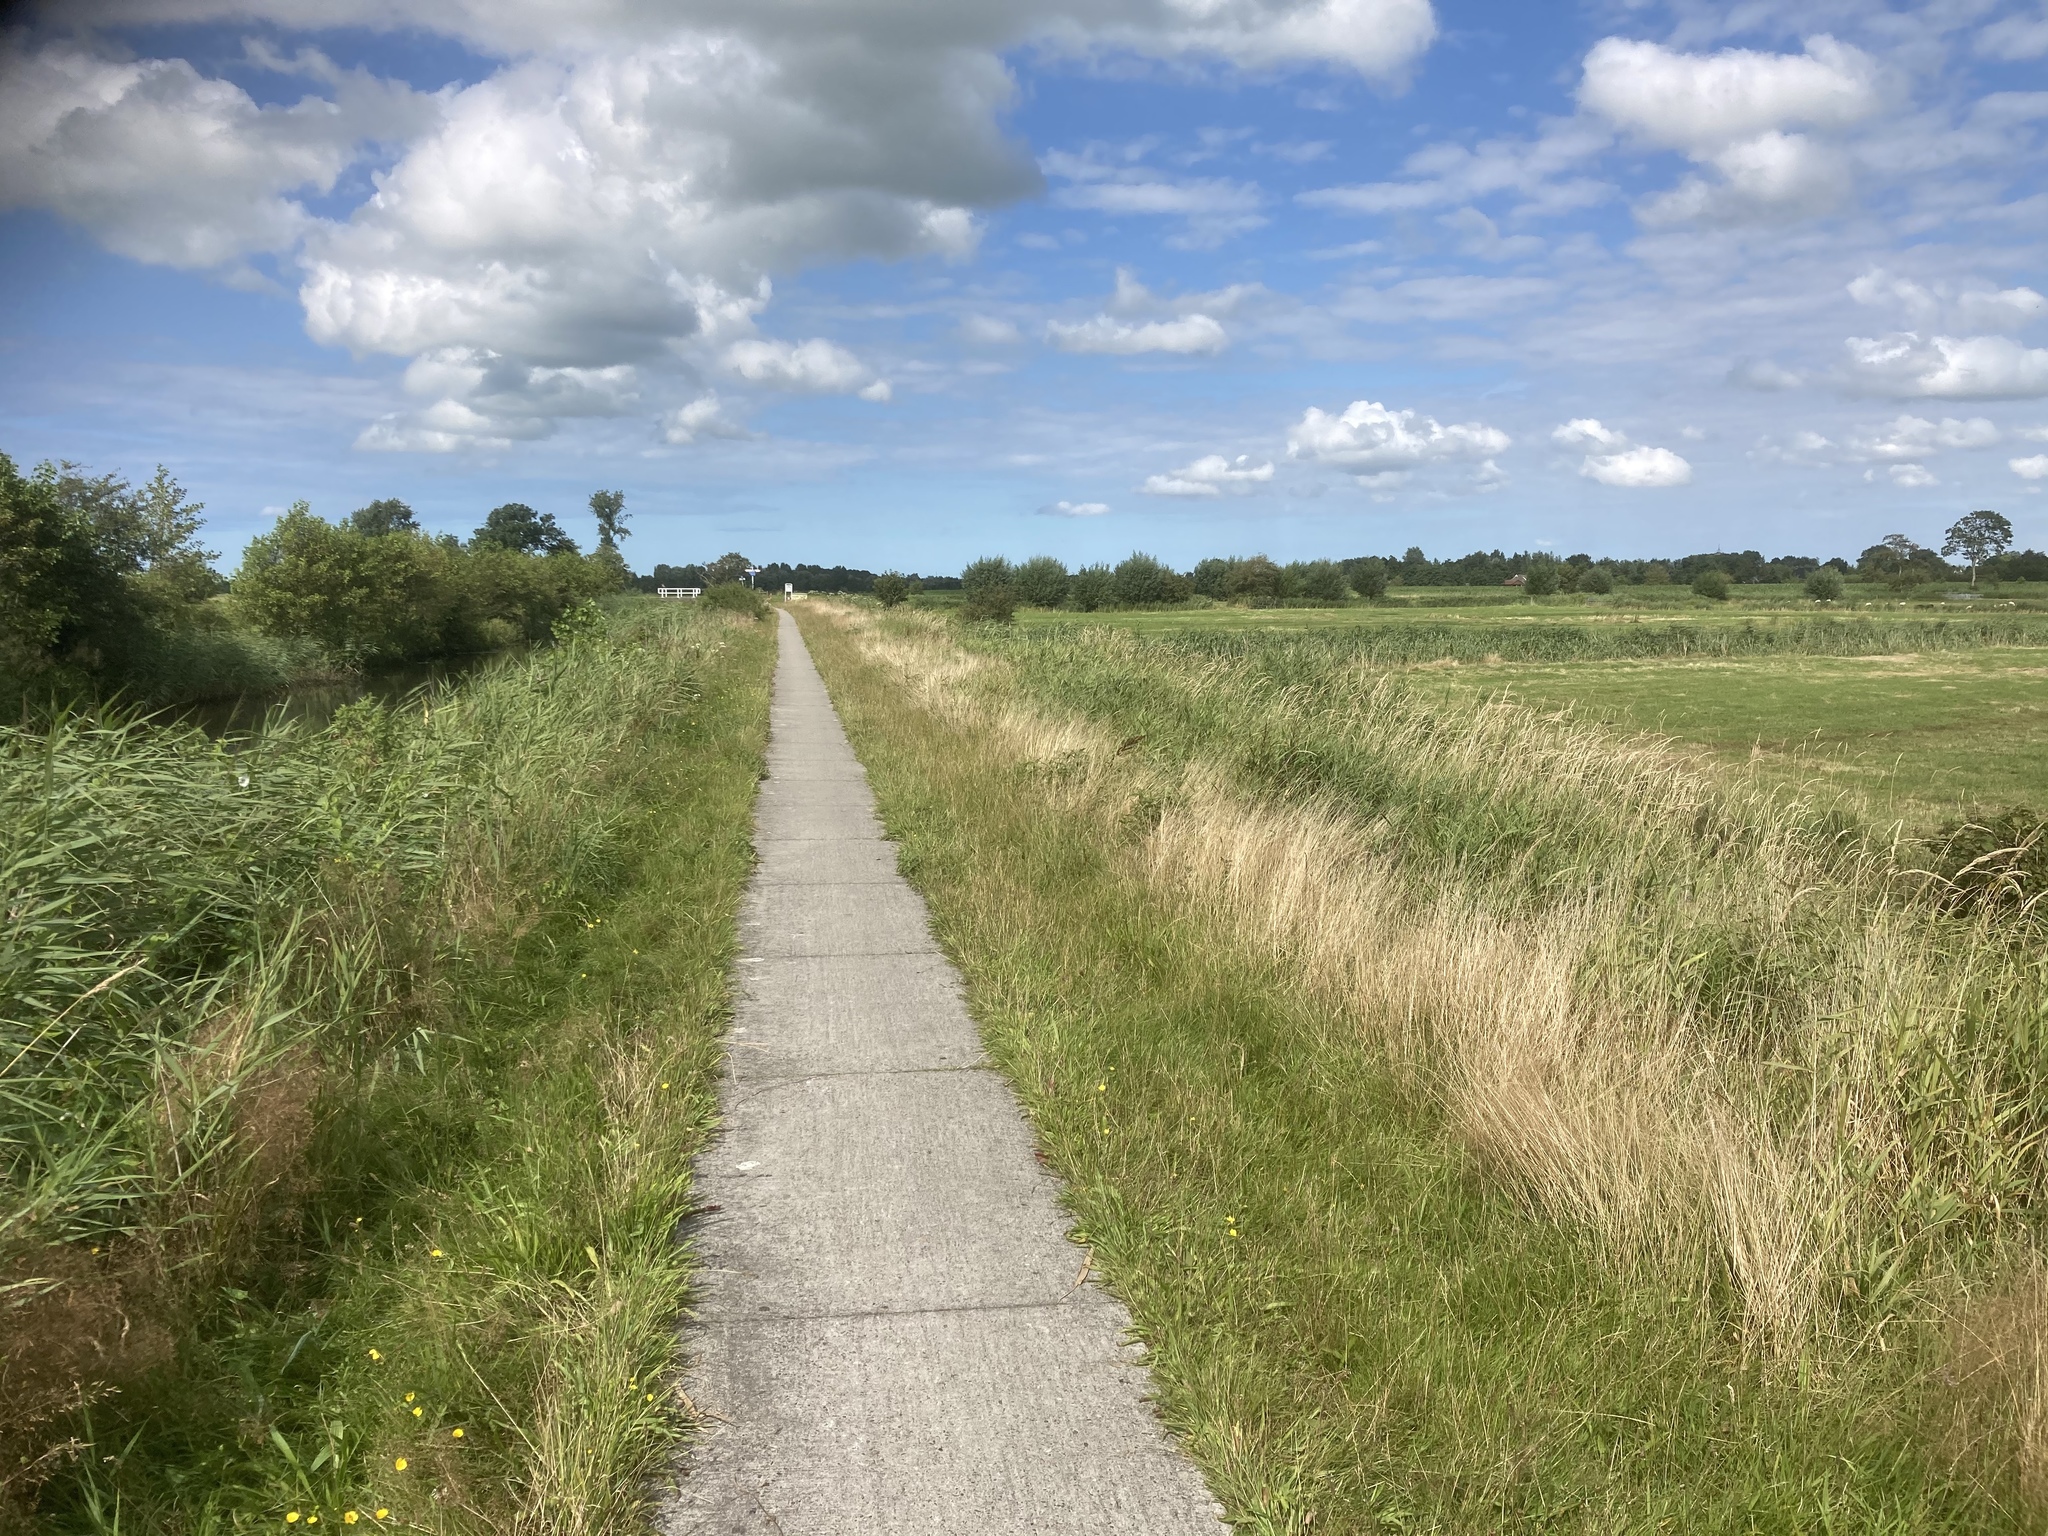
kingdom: Plantae
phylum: Tracheophyta
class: Liliopsida
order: Poales
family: Poaceae
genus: Phragmites
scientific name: Phragmites australis
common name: Common reed
